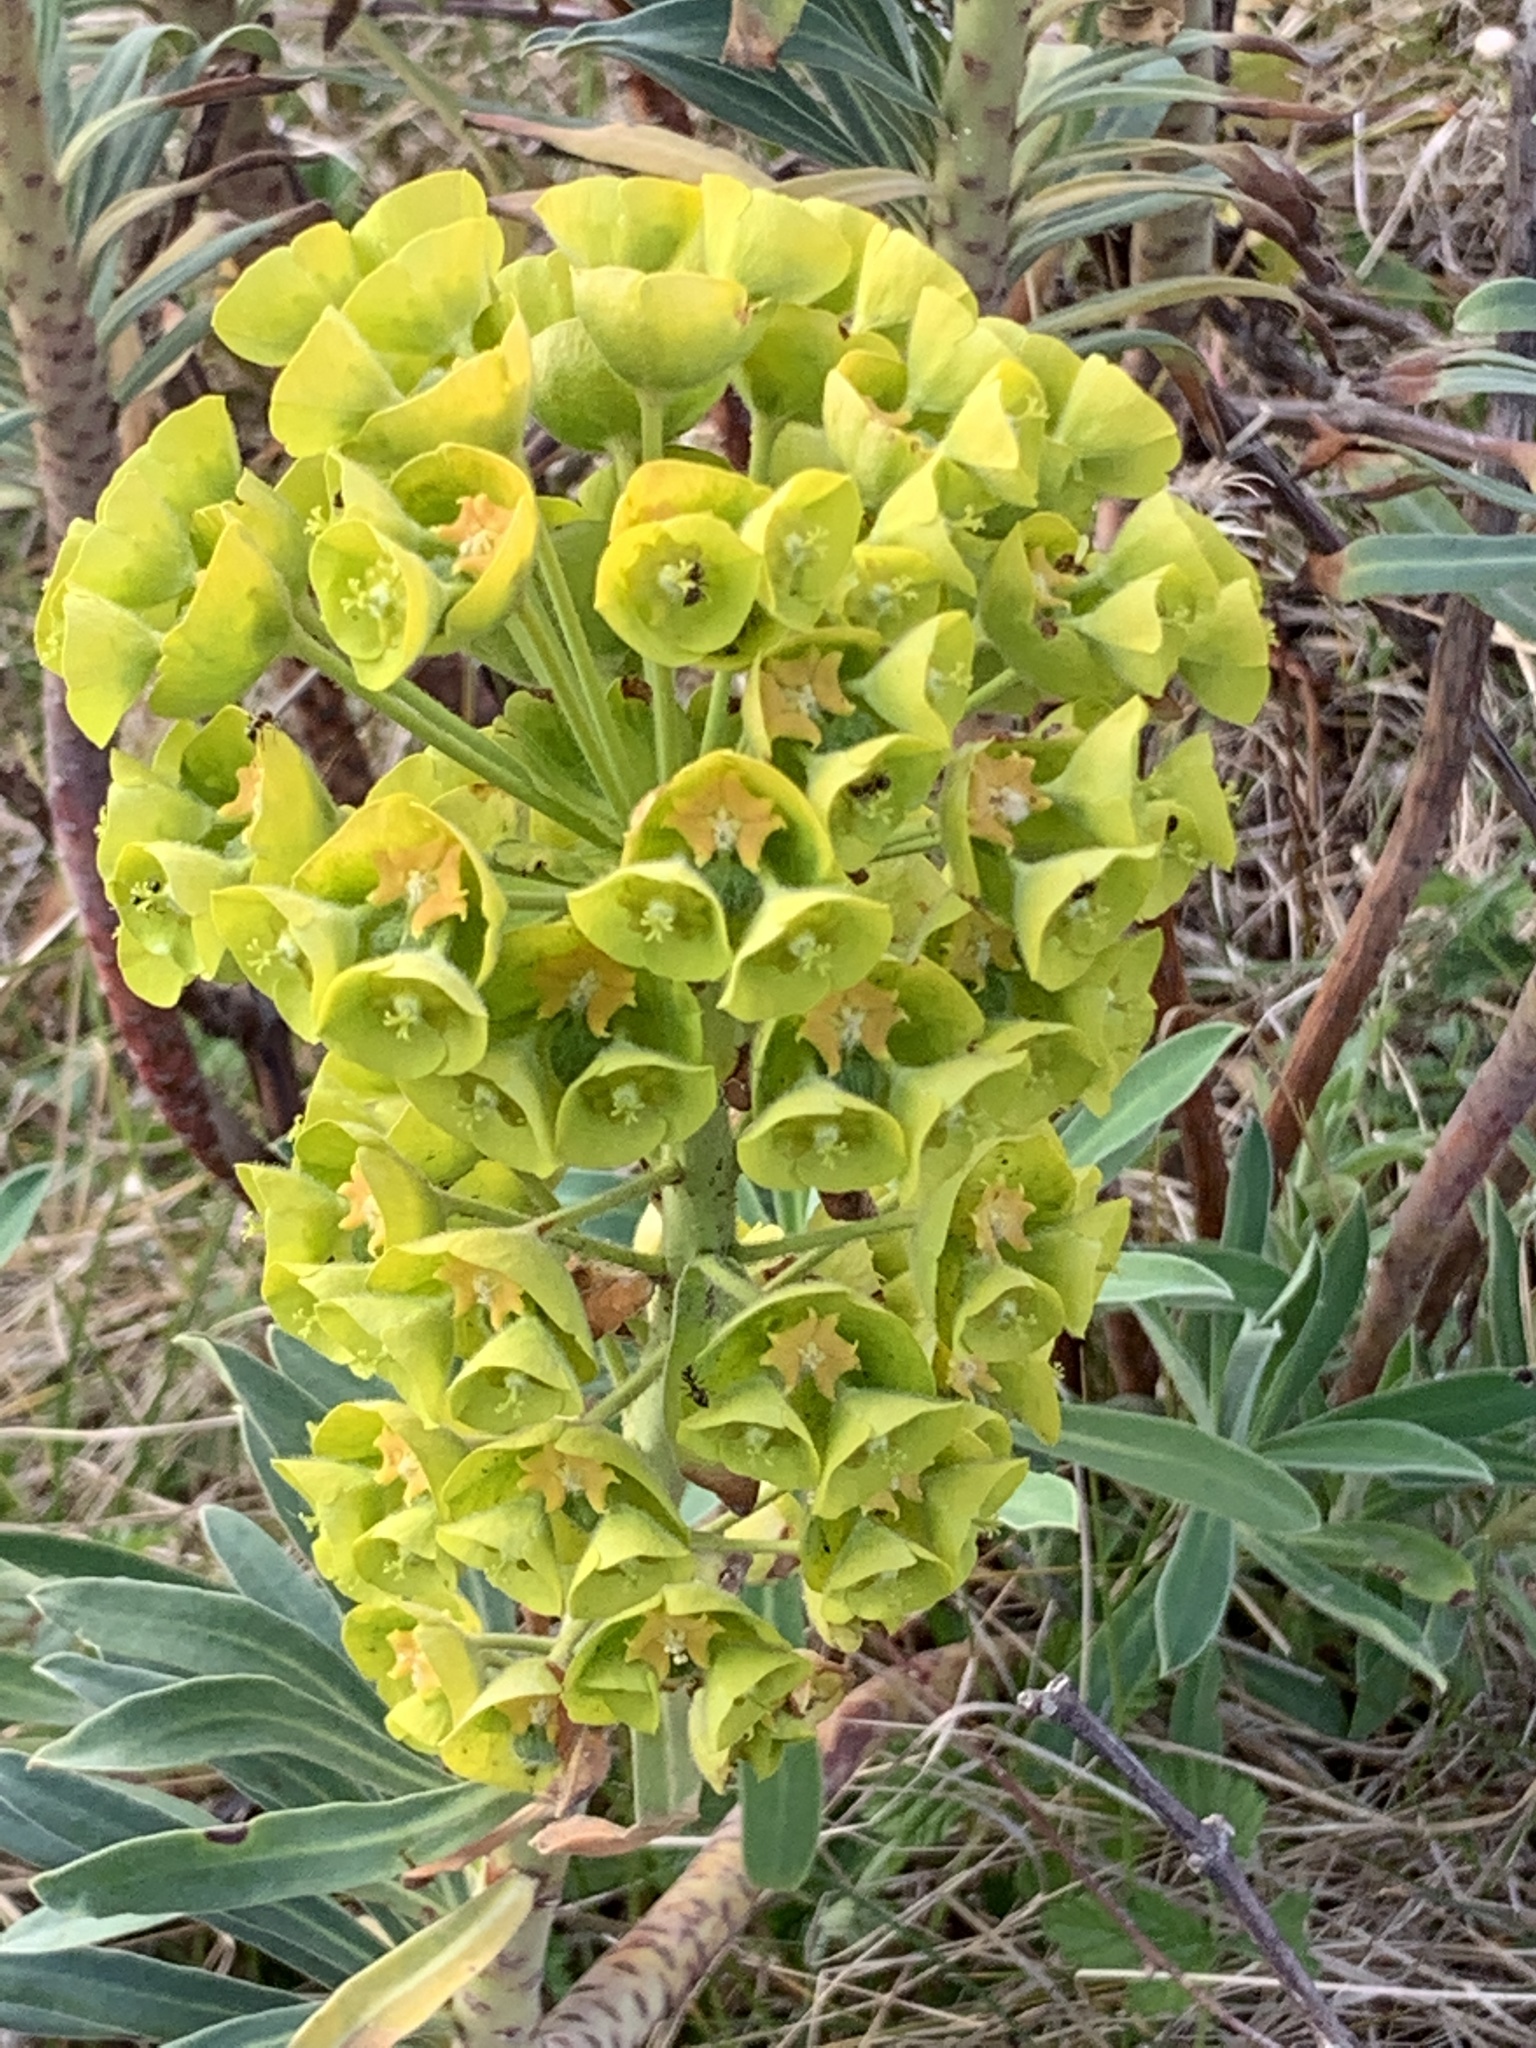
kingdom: Plantae
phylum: Tracheophyta
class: Magnoliopsida
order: Malpighiales
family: Euphorbiaceae
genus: Euphorbia
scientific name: Euphorbia characias
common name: Mediterranean spurge
